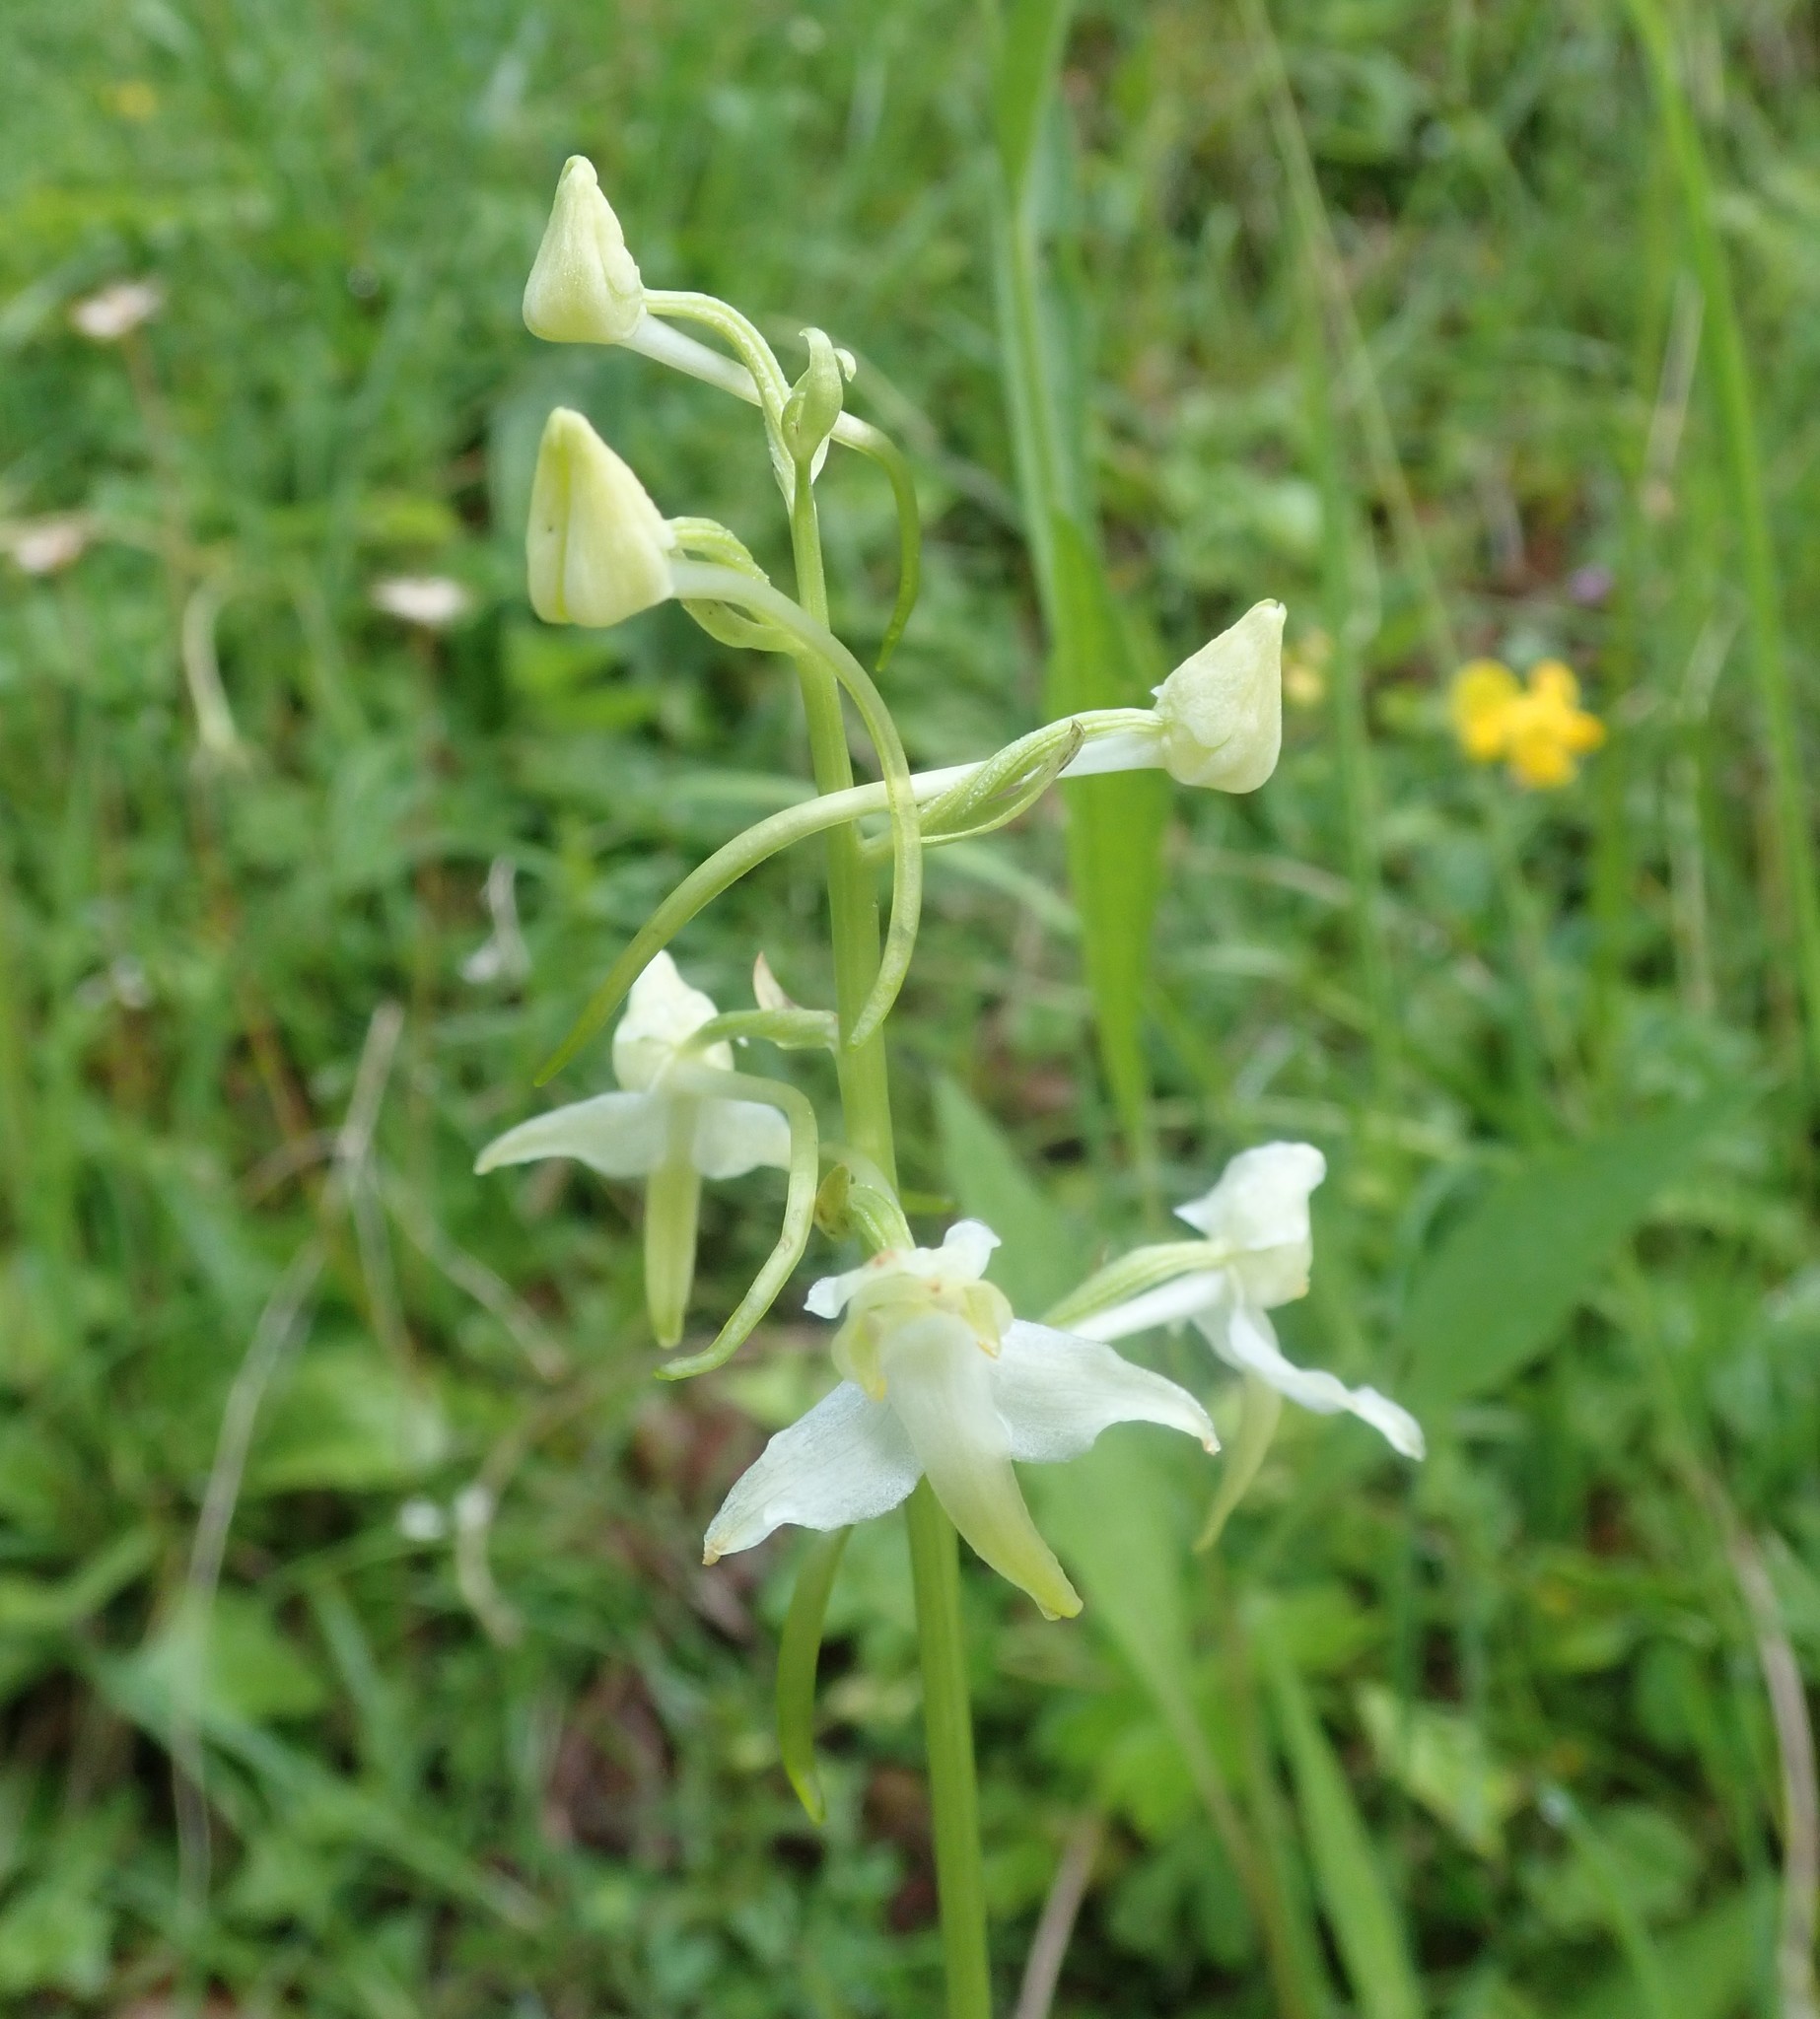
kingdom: Plantae
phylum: Tracheophyta
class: Liliopsida
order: Asparagales
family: Orchidaceae
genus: Platanthera
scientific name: Platanthera chlorantha
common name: Greater butterfly-orchid
